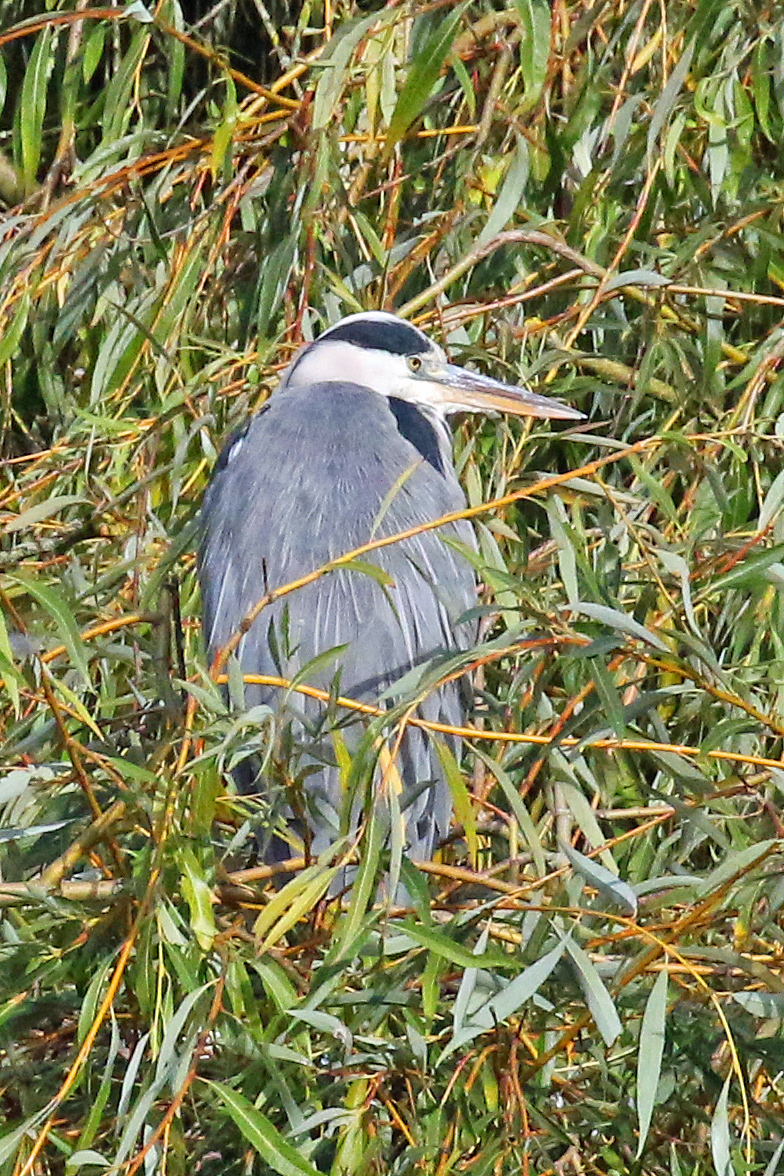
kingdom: Animalia
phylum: Chordata
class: Aves
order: Pelecaniformes
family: Ardeidae
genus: Ardea
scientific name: Ardea cinerea
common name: Grey heron
